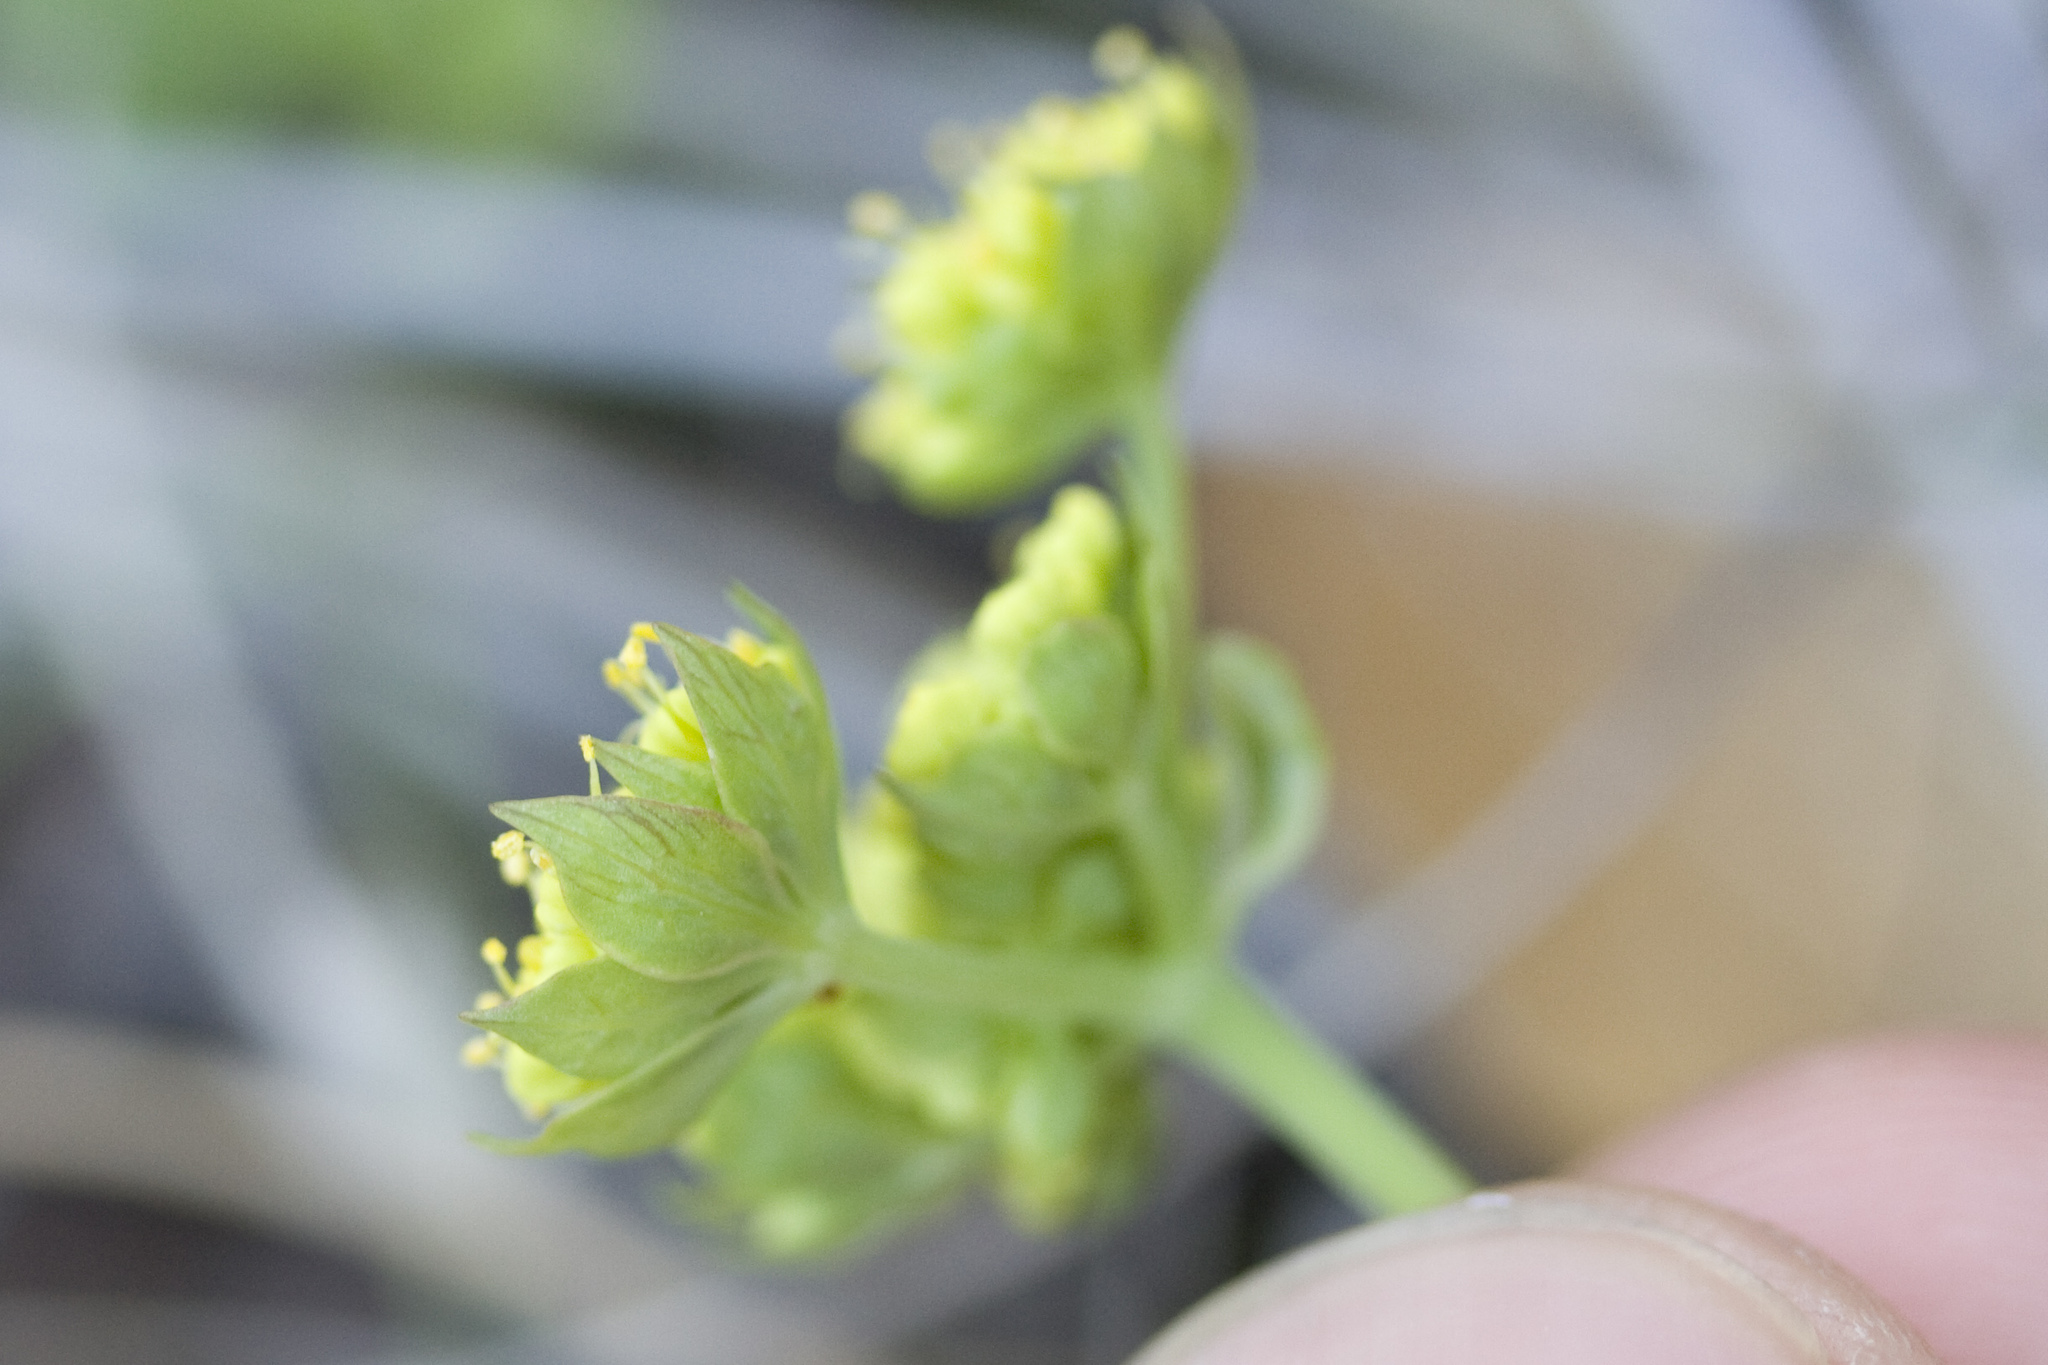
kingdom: Plantae
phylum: Tracheophyta
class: Magnoliopsida
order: Apiales
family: Apiaceae
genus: Lomatium
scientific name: Lomatium utriculatum
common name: Fine-leaf desert-parsley
